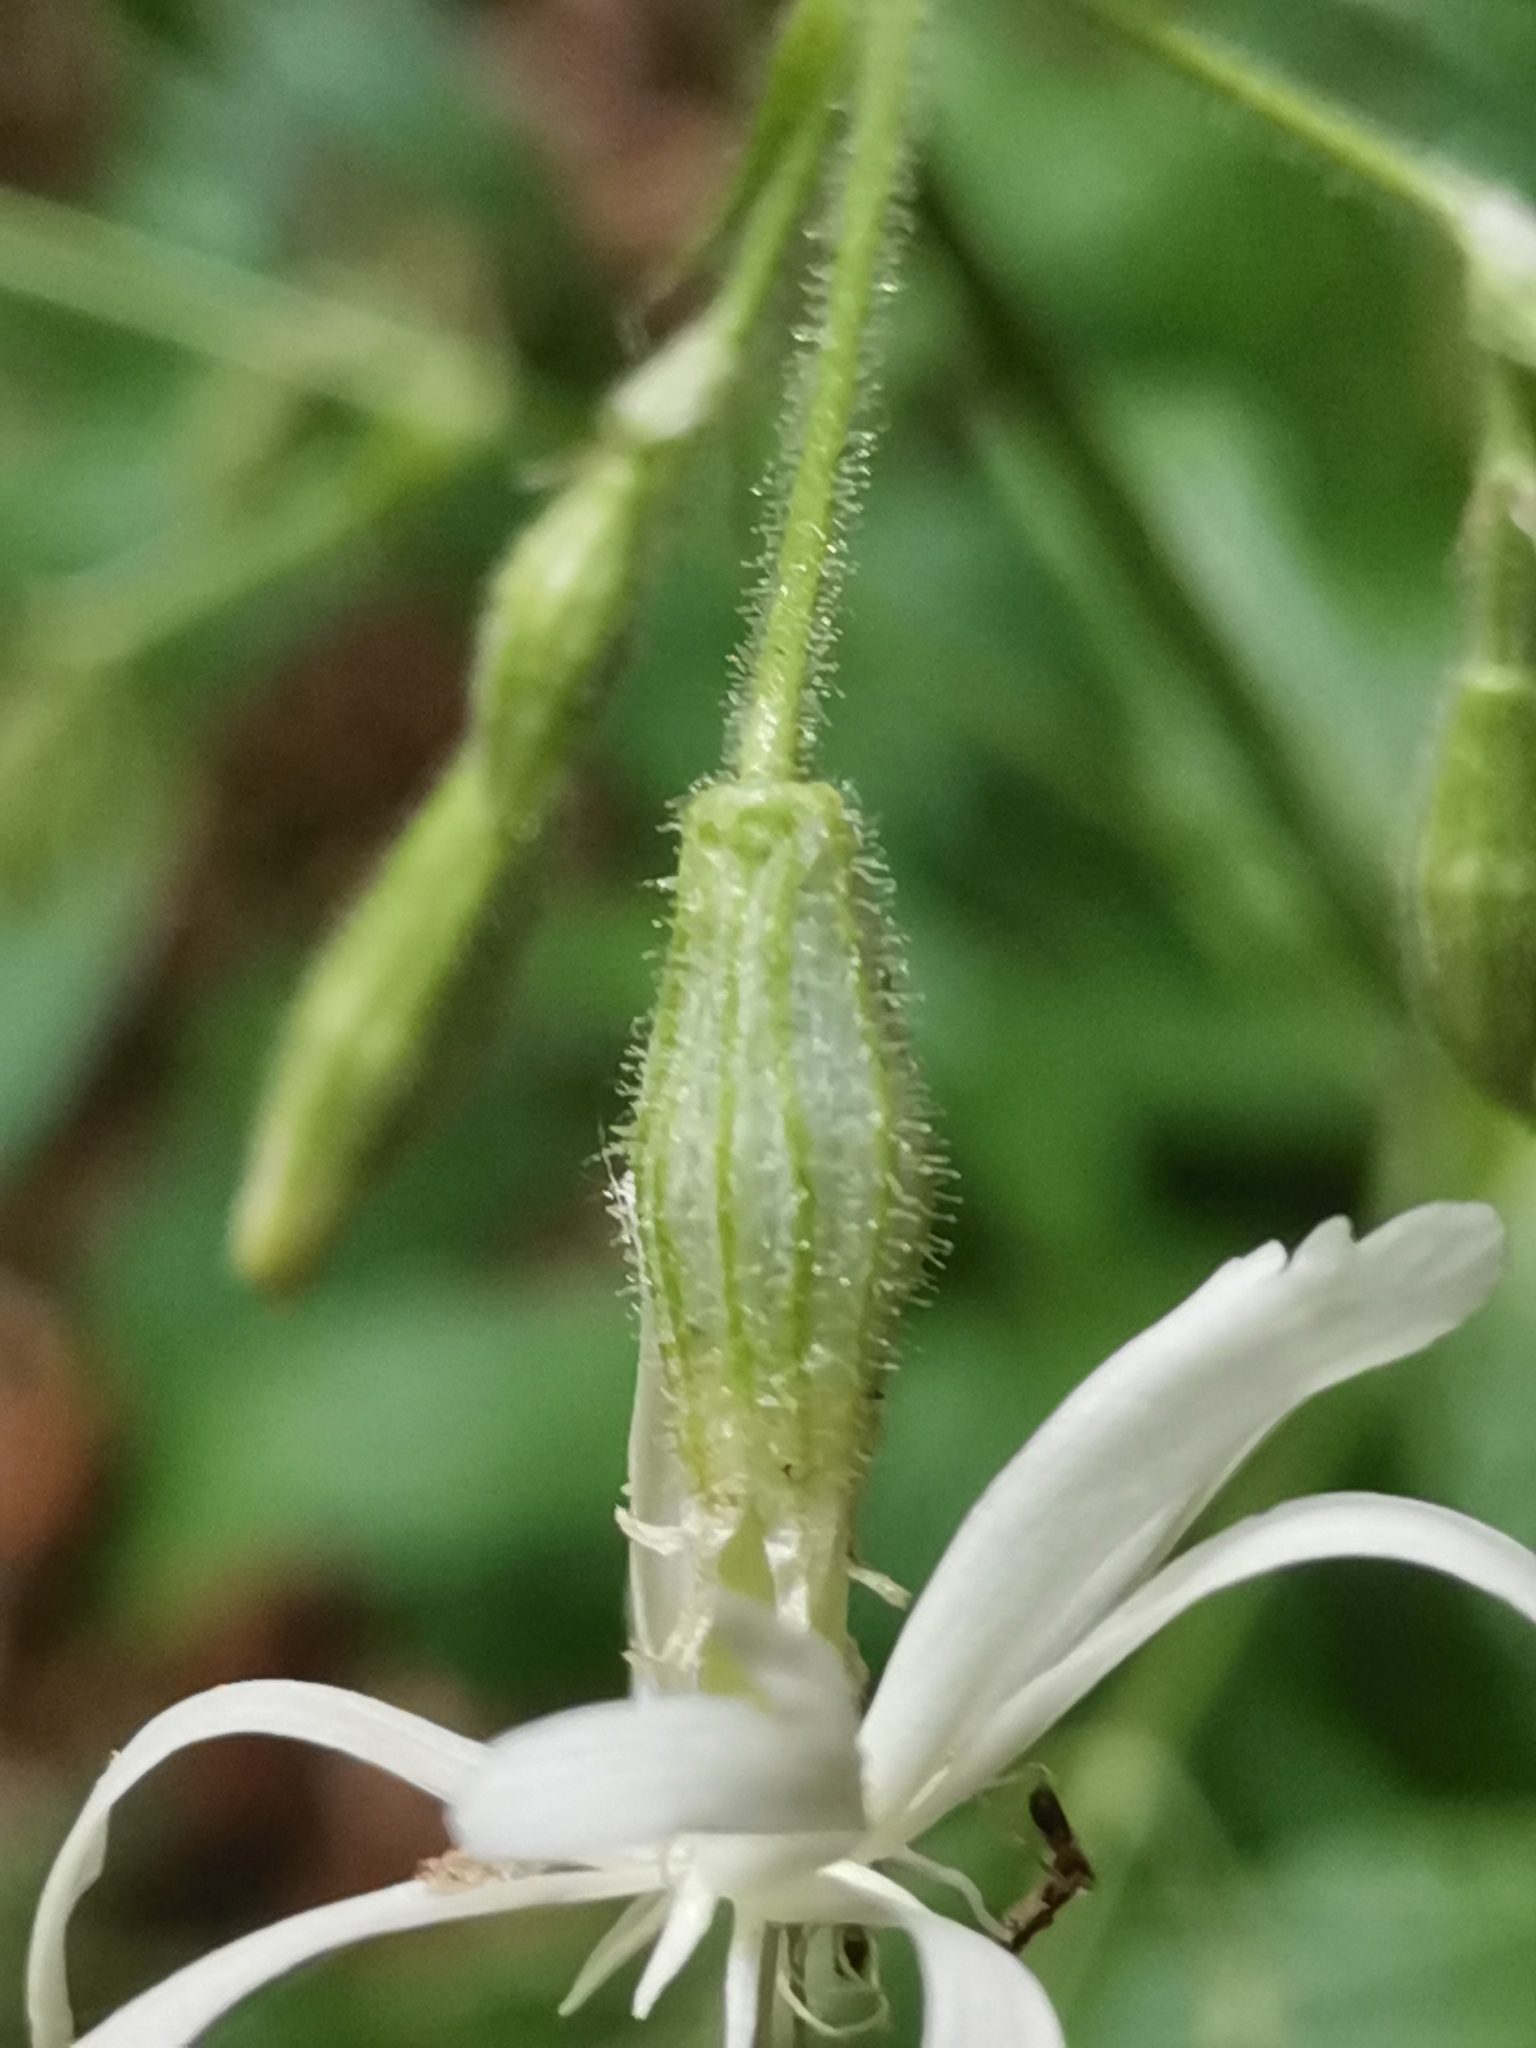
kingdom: Plantae
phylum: Tracheophyta
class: Magnoliopsida
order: Caryophyllales
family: Caryophyllaceae
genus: Silene
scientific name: Silene nutans
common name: Nottingham catchfly
